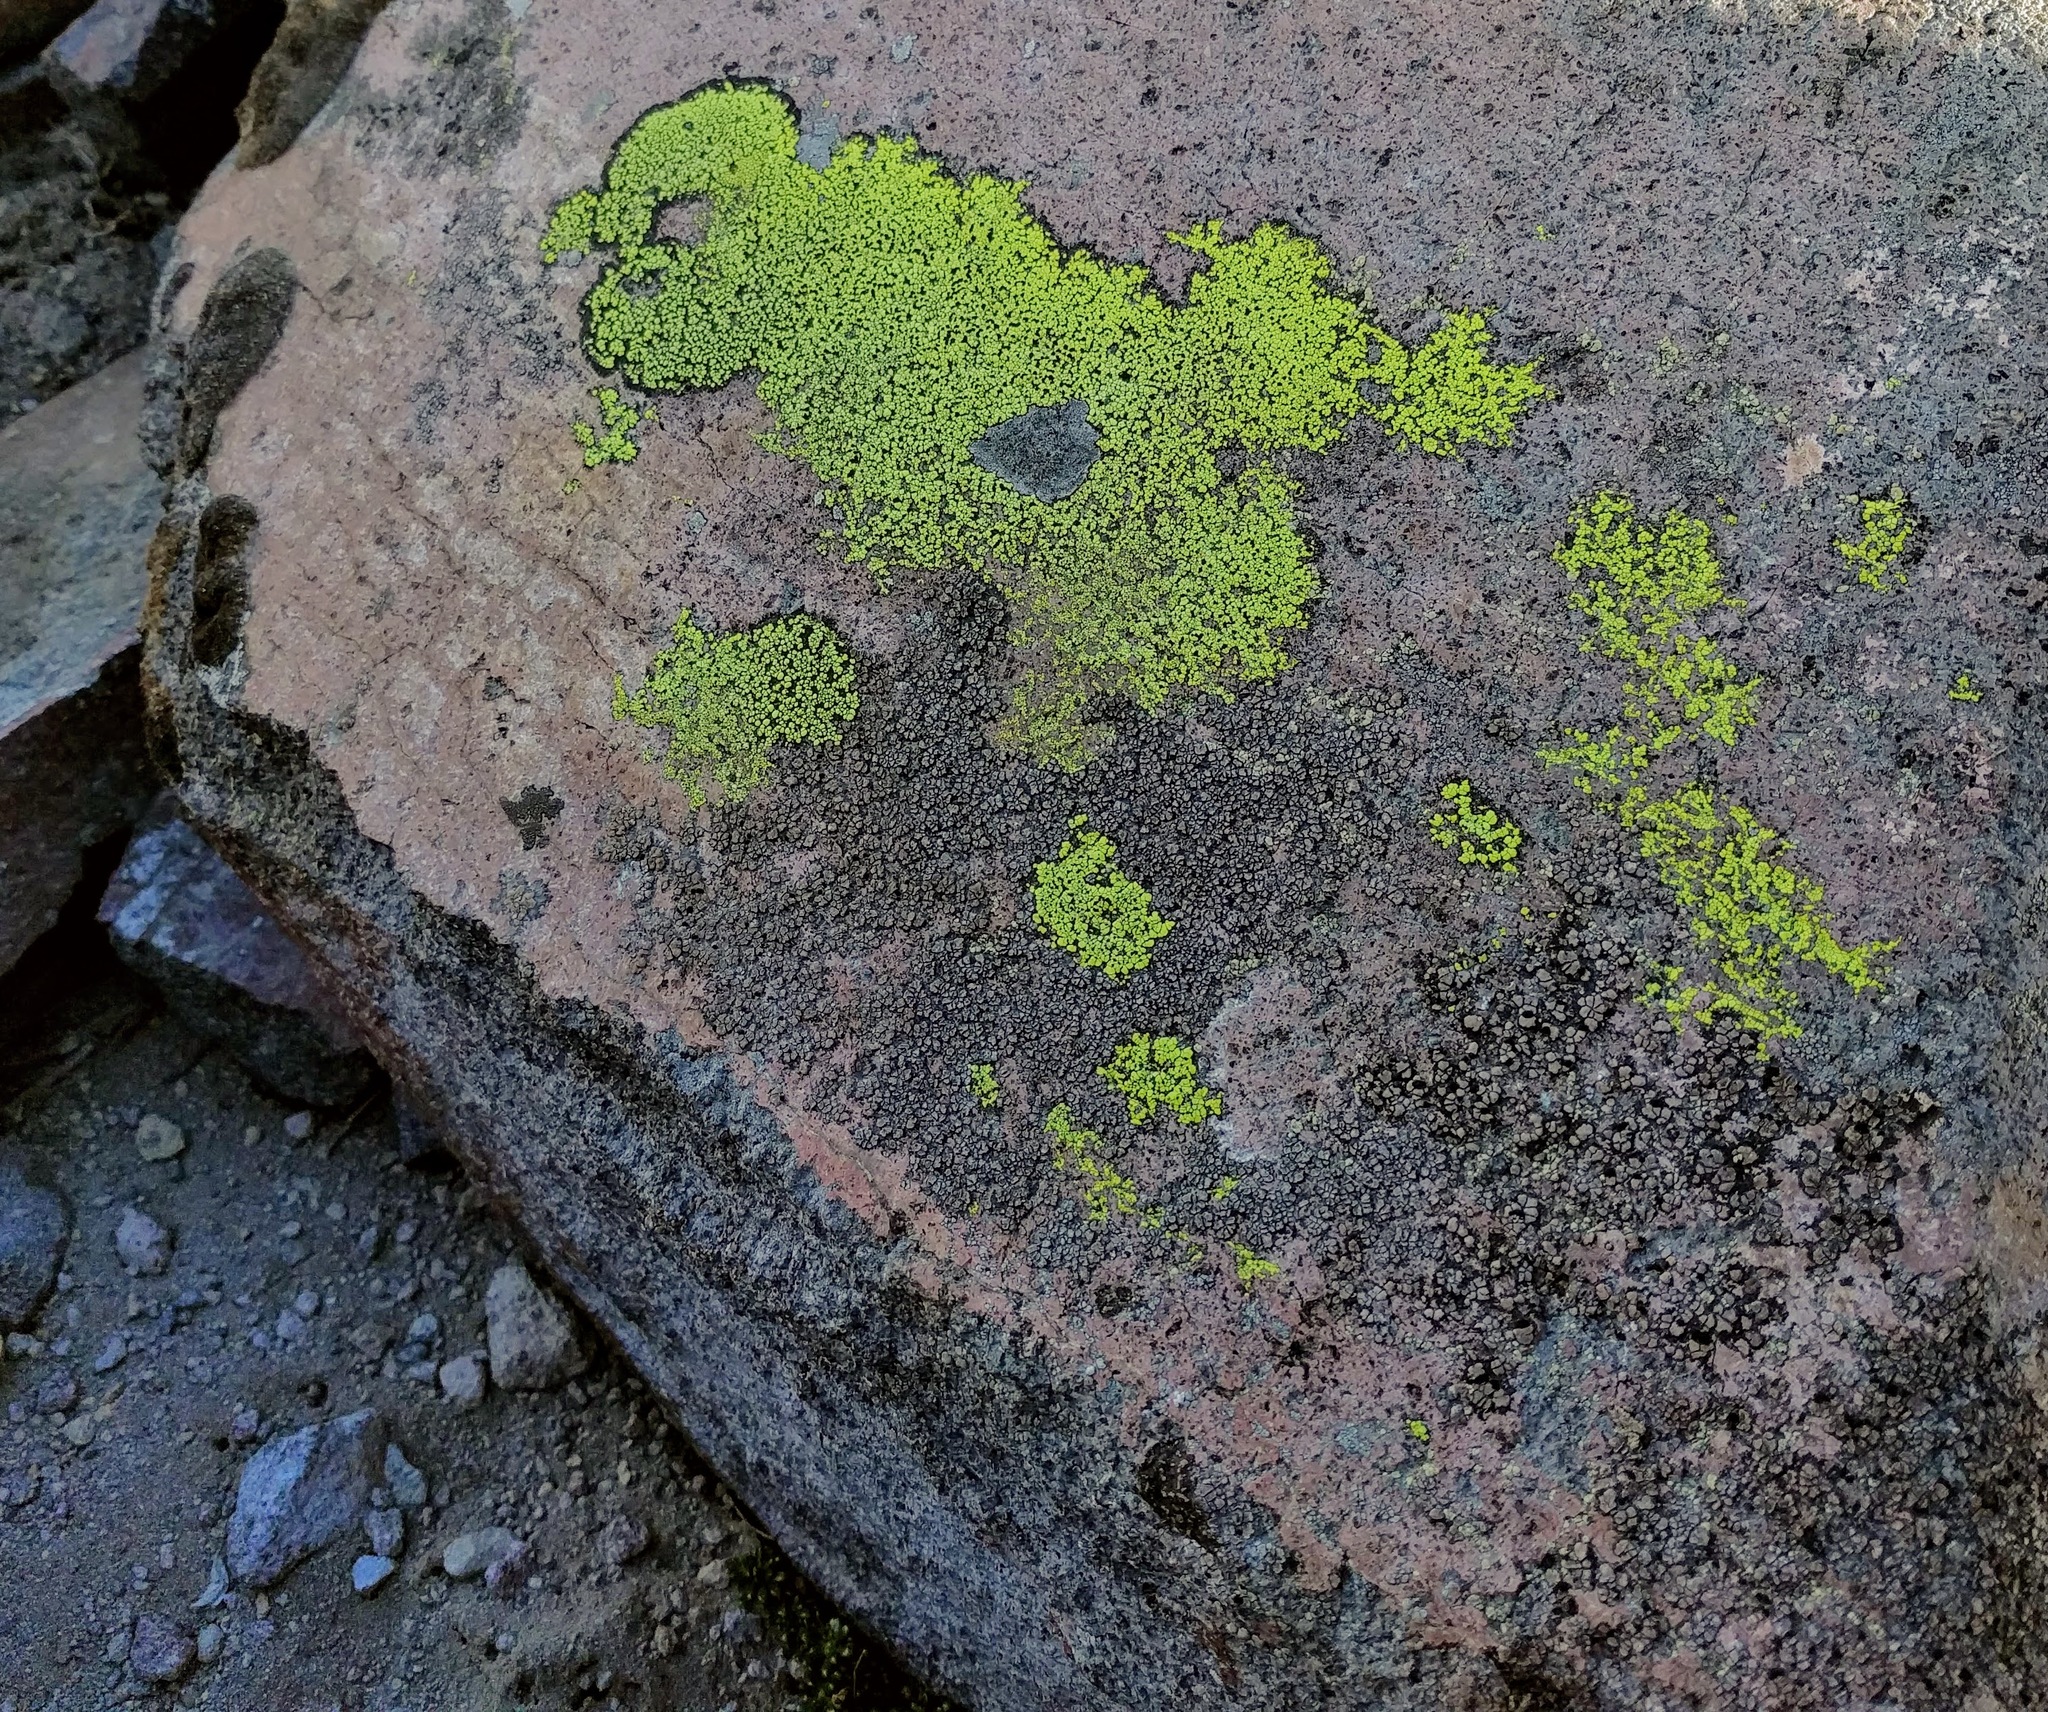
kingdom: Fungi
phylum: Ascomycota
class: Lecanoromycetes
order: Rhizocarpales
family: Rhizocarpaceae
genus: Rhizocarpon
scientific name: Rhizocarpon geographicum
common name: Yellow map lichen
